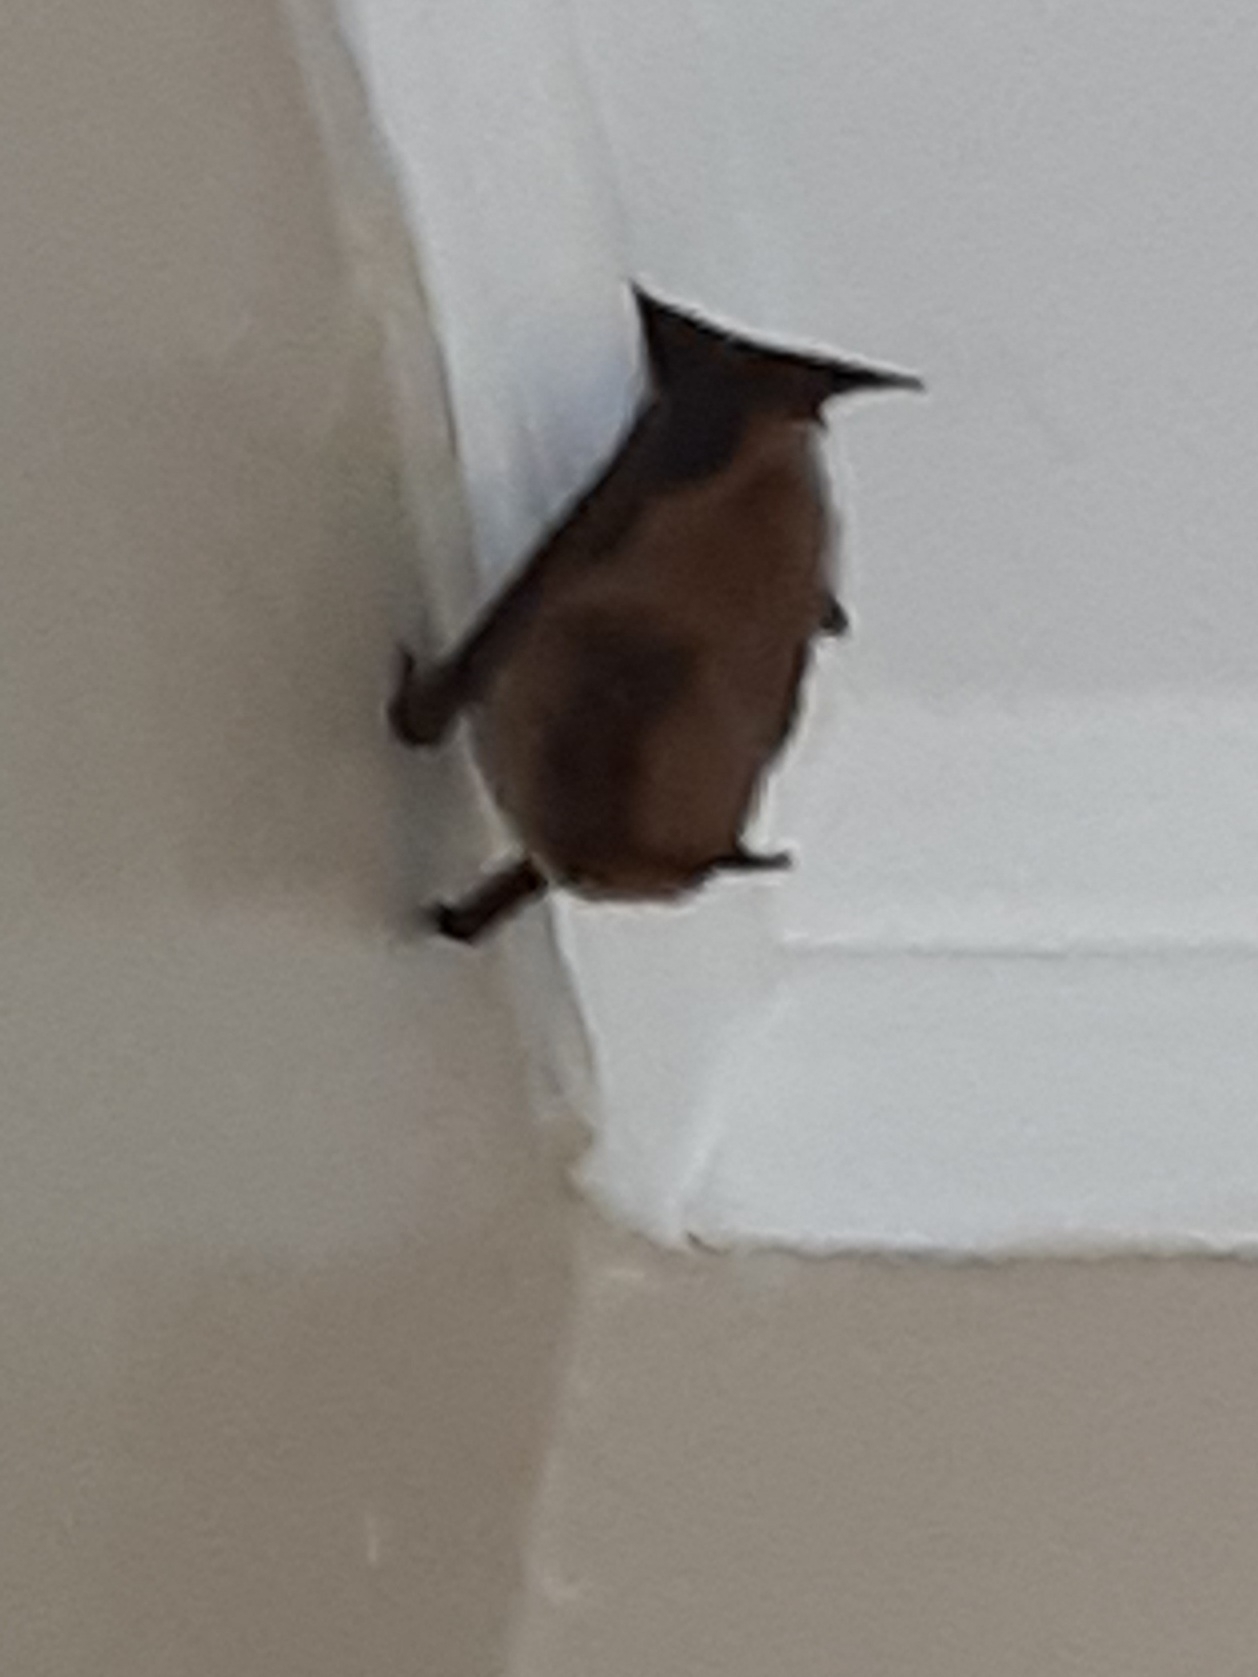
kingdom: Animalia
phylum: Chordata
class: Mammalia
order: Chiroptera
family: Vespertilionidae
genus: Eptesicus
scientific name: Eptesicus fuscus
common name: Big brown bat
